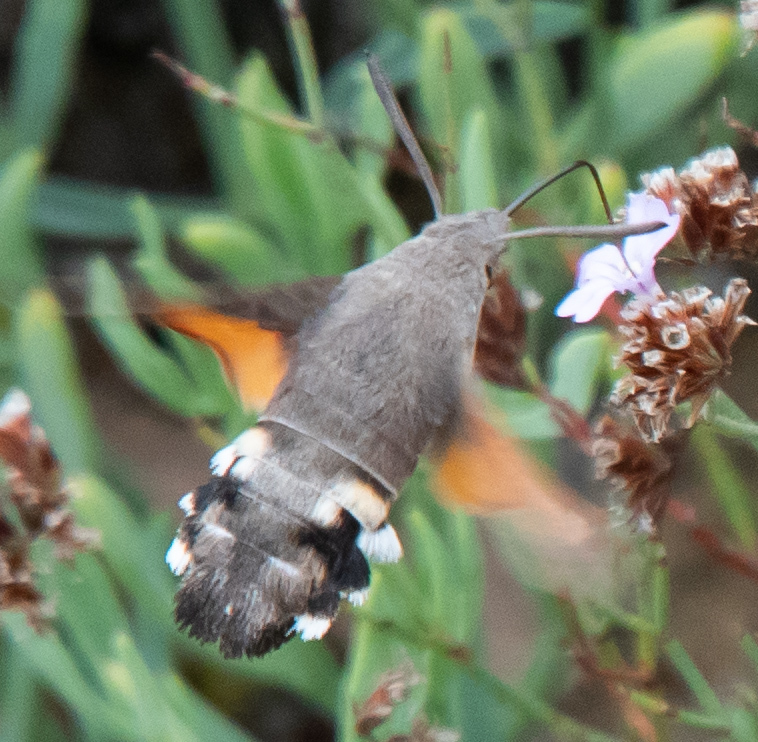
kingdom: Animalia
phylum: Arthropoda
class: Insecta
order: Lepidoptera
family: Sphingidae
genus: Macroglossum
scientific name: Macroglossum stellatarum
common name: Humming-bird hawk-moth
